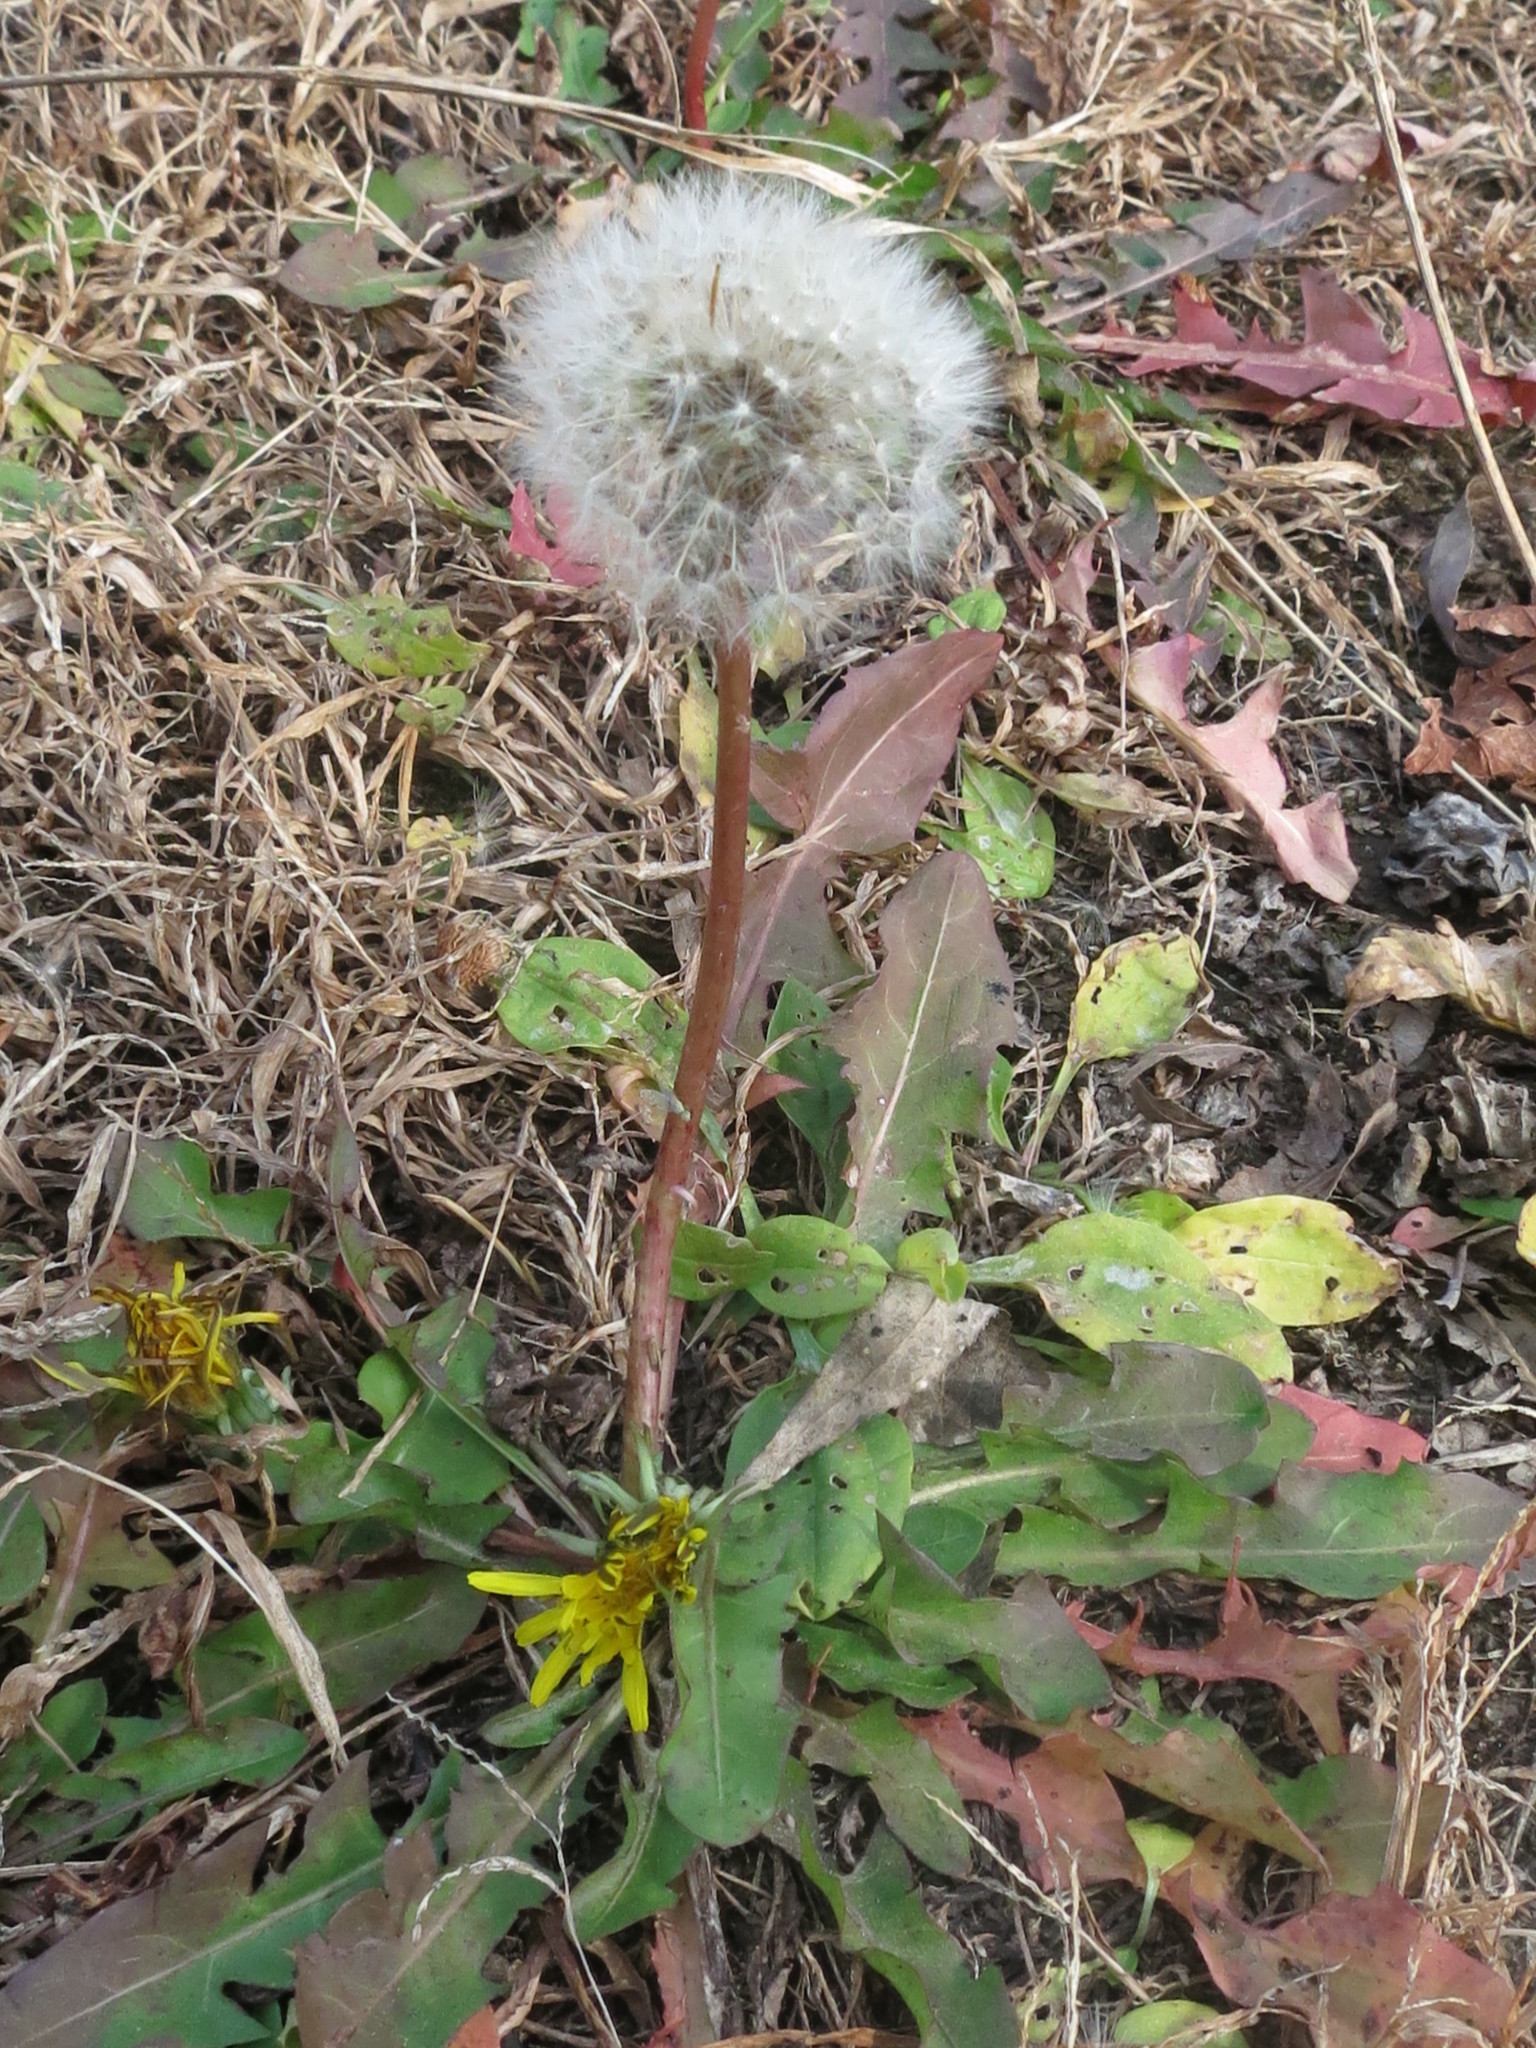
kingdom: Plantae
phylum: Tracheophyta
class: Magnoliopsida
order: Asterales
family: Asteraceae
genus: Taraxacum
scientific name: Taraxacum officinale
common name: Common dandelion
